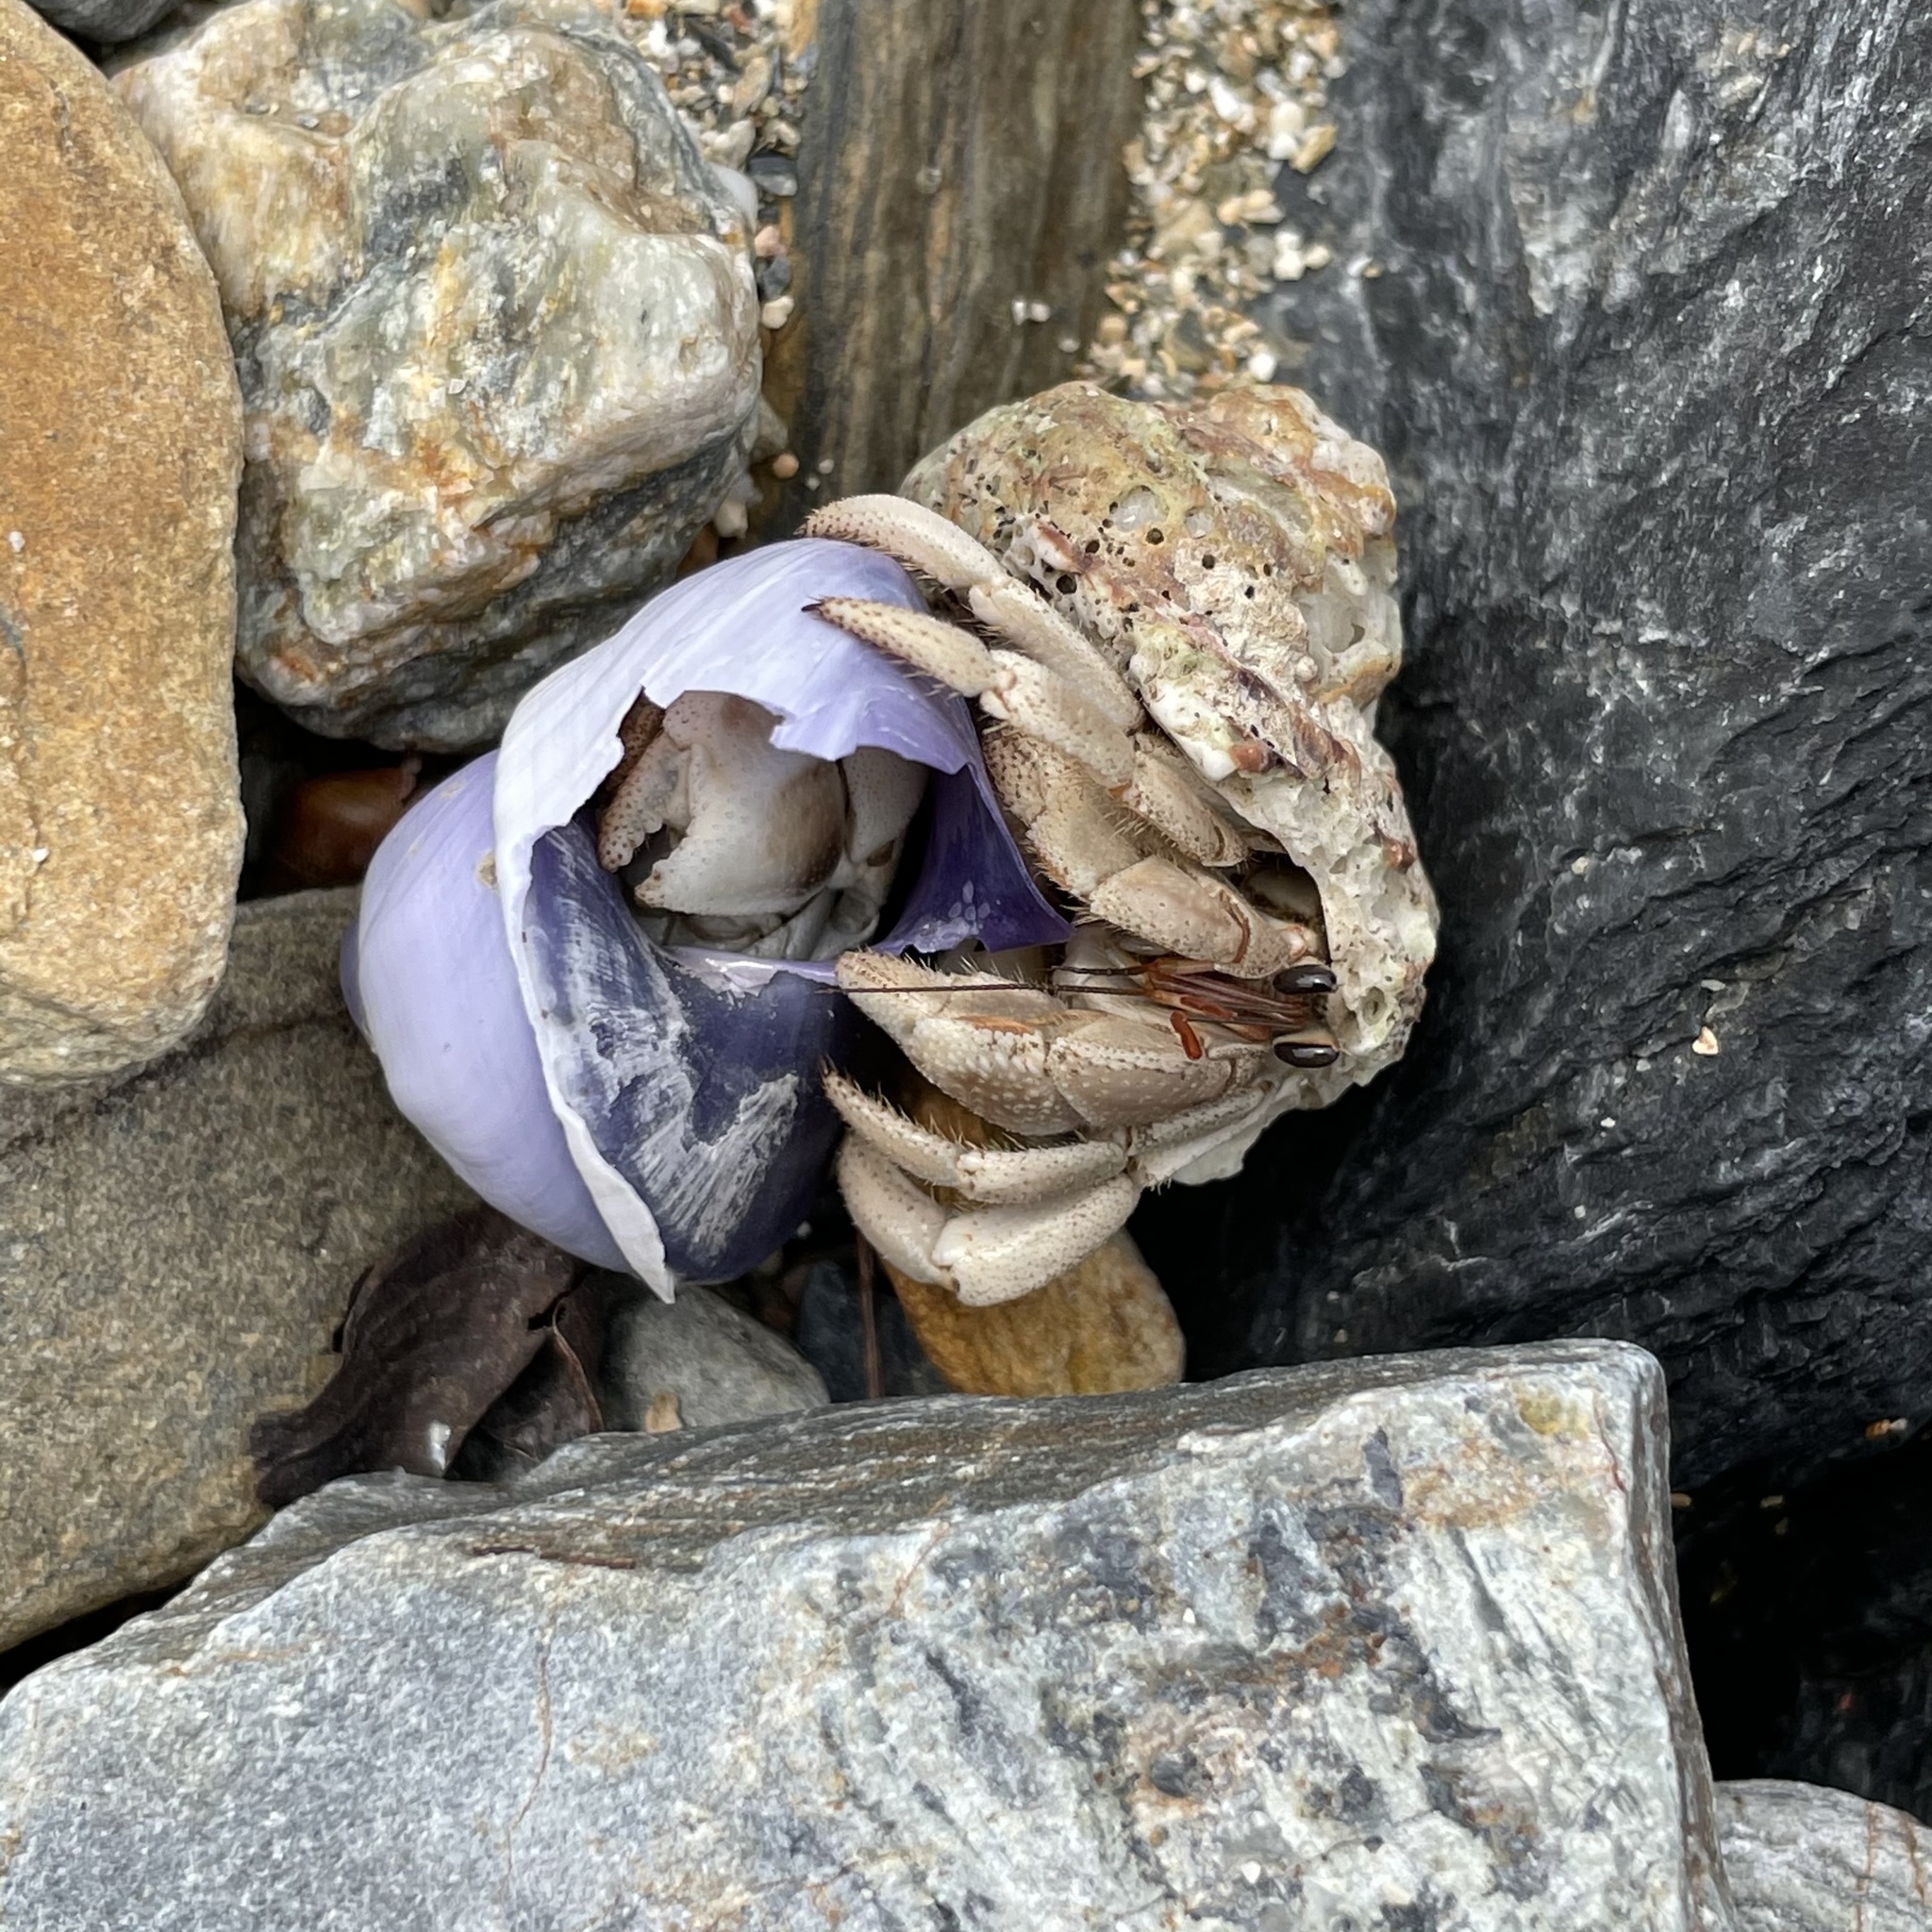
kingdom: Animalia
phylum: Arthropoda
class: Malacostraca
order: Decapoda
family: Coenobitidae
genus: Coenobita
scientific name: Coenobita rugosus
